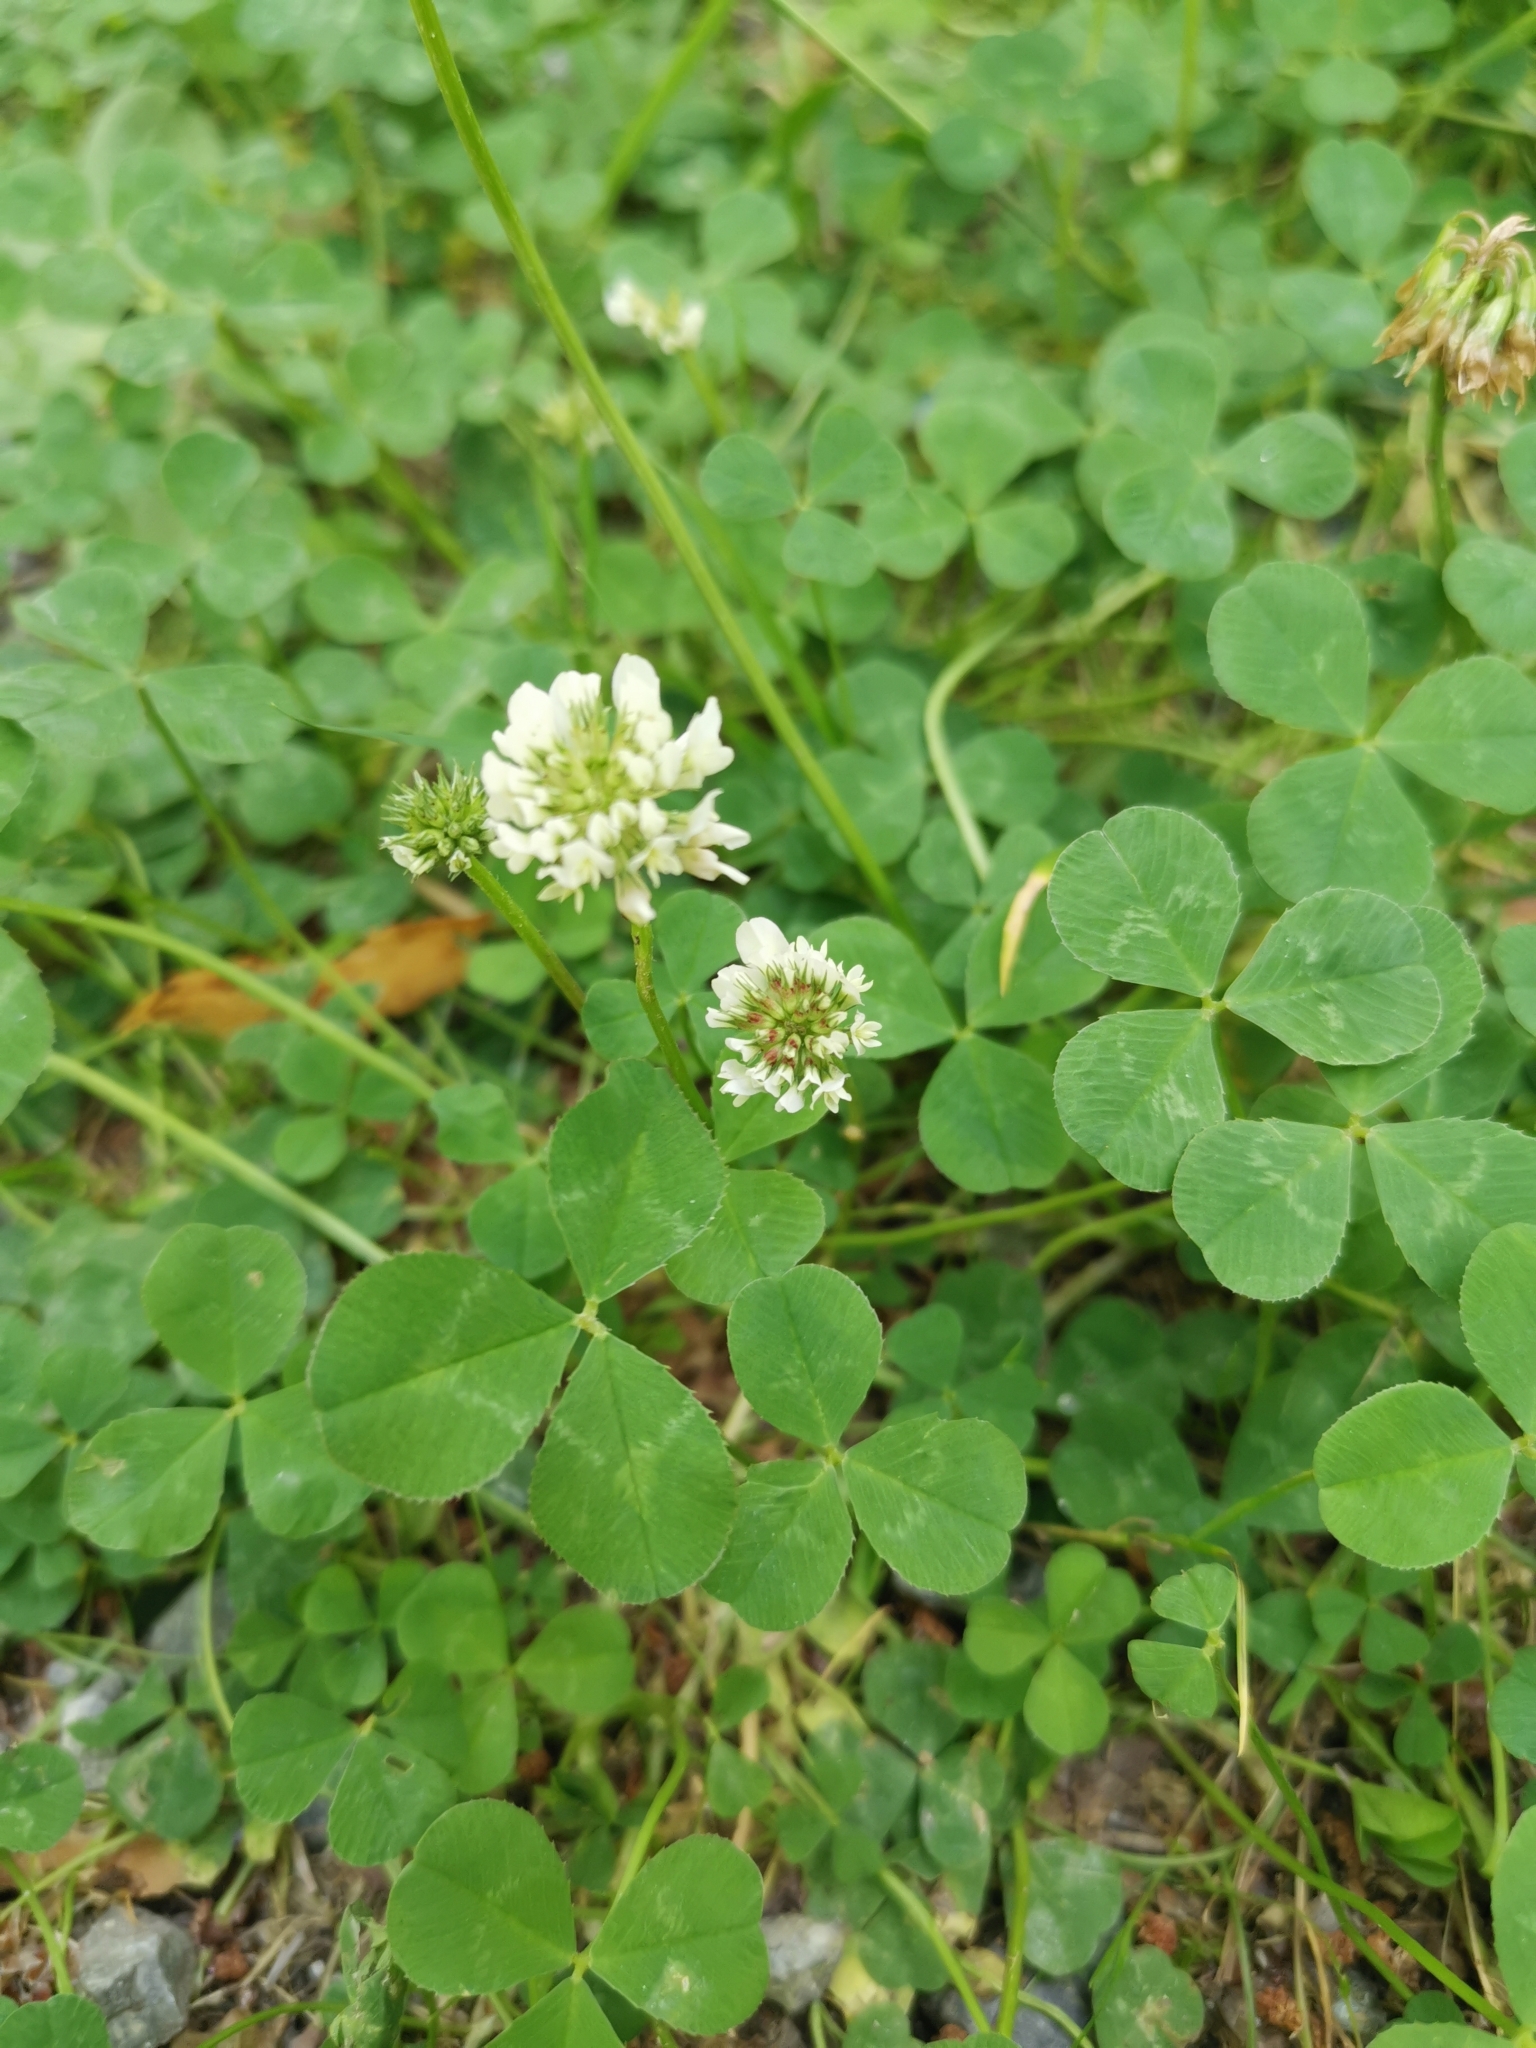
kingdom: Plantae
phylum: Tracheophyta
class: Magnoliopsida
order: Fabales
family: Fabaceae
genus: Trifolium
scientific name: Trifolium repens
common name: White clover
